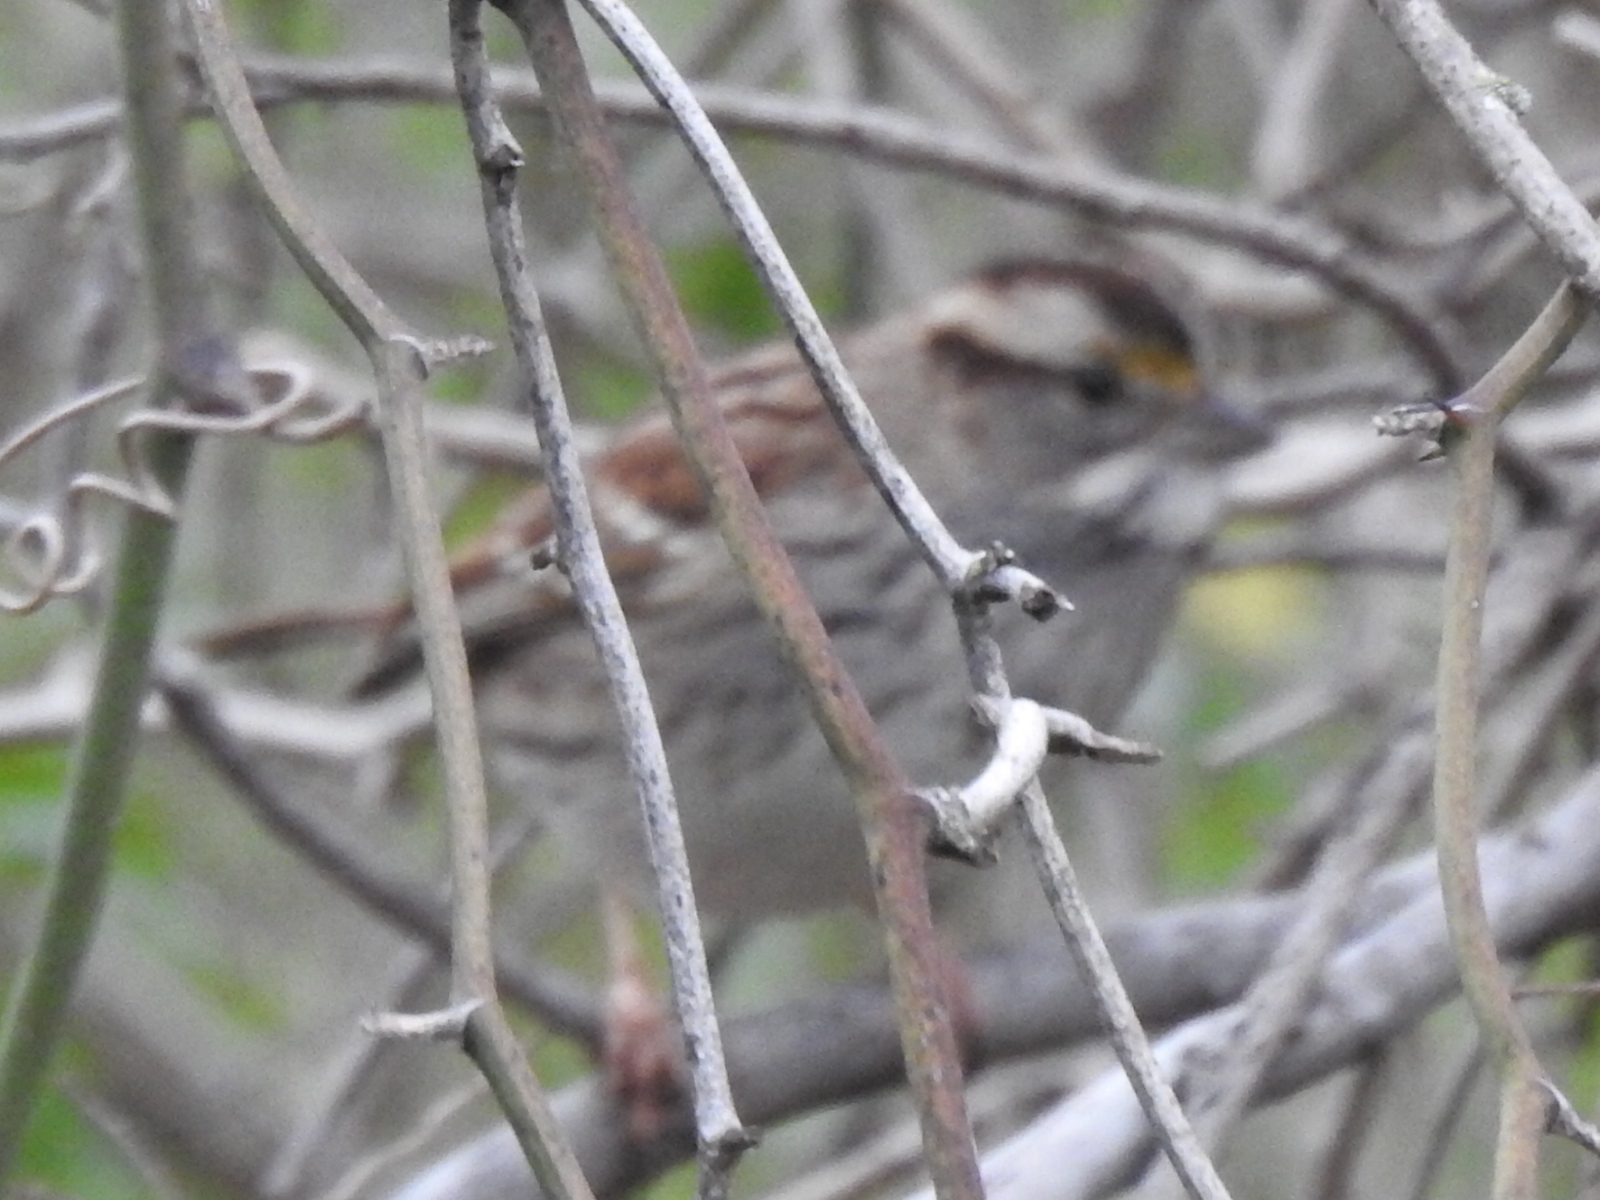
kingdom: Animalia
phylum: Chordata
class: Aves
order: Passeriformes
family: Passerellidae
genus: Zonotrichia
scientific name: Zonotrichia albicollis
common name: White-throated sparrow
